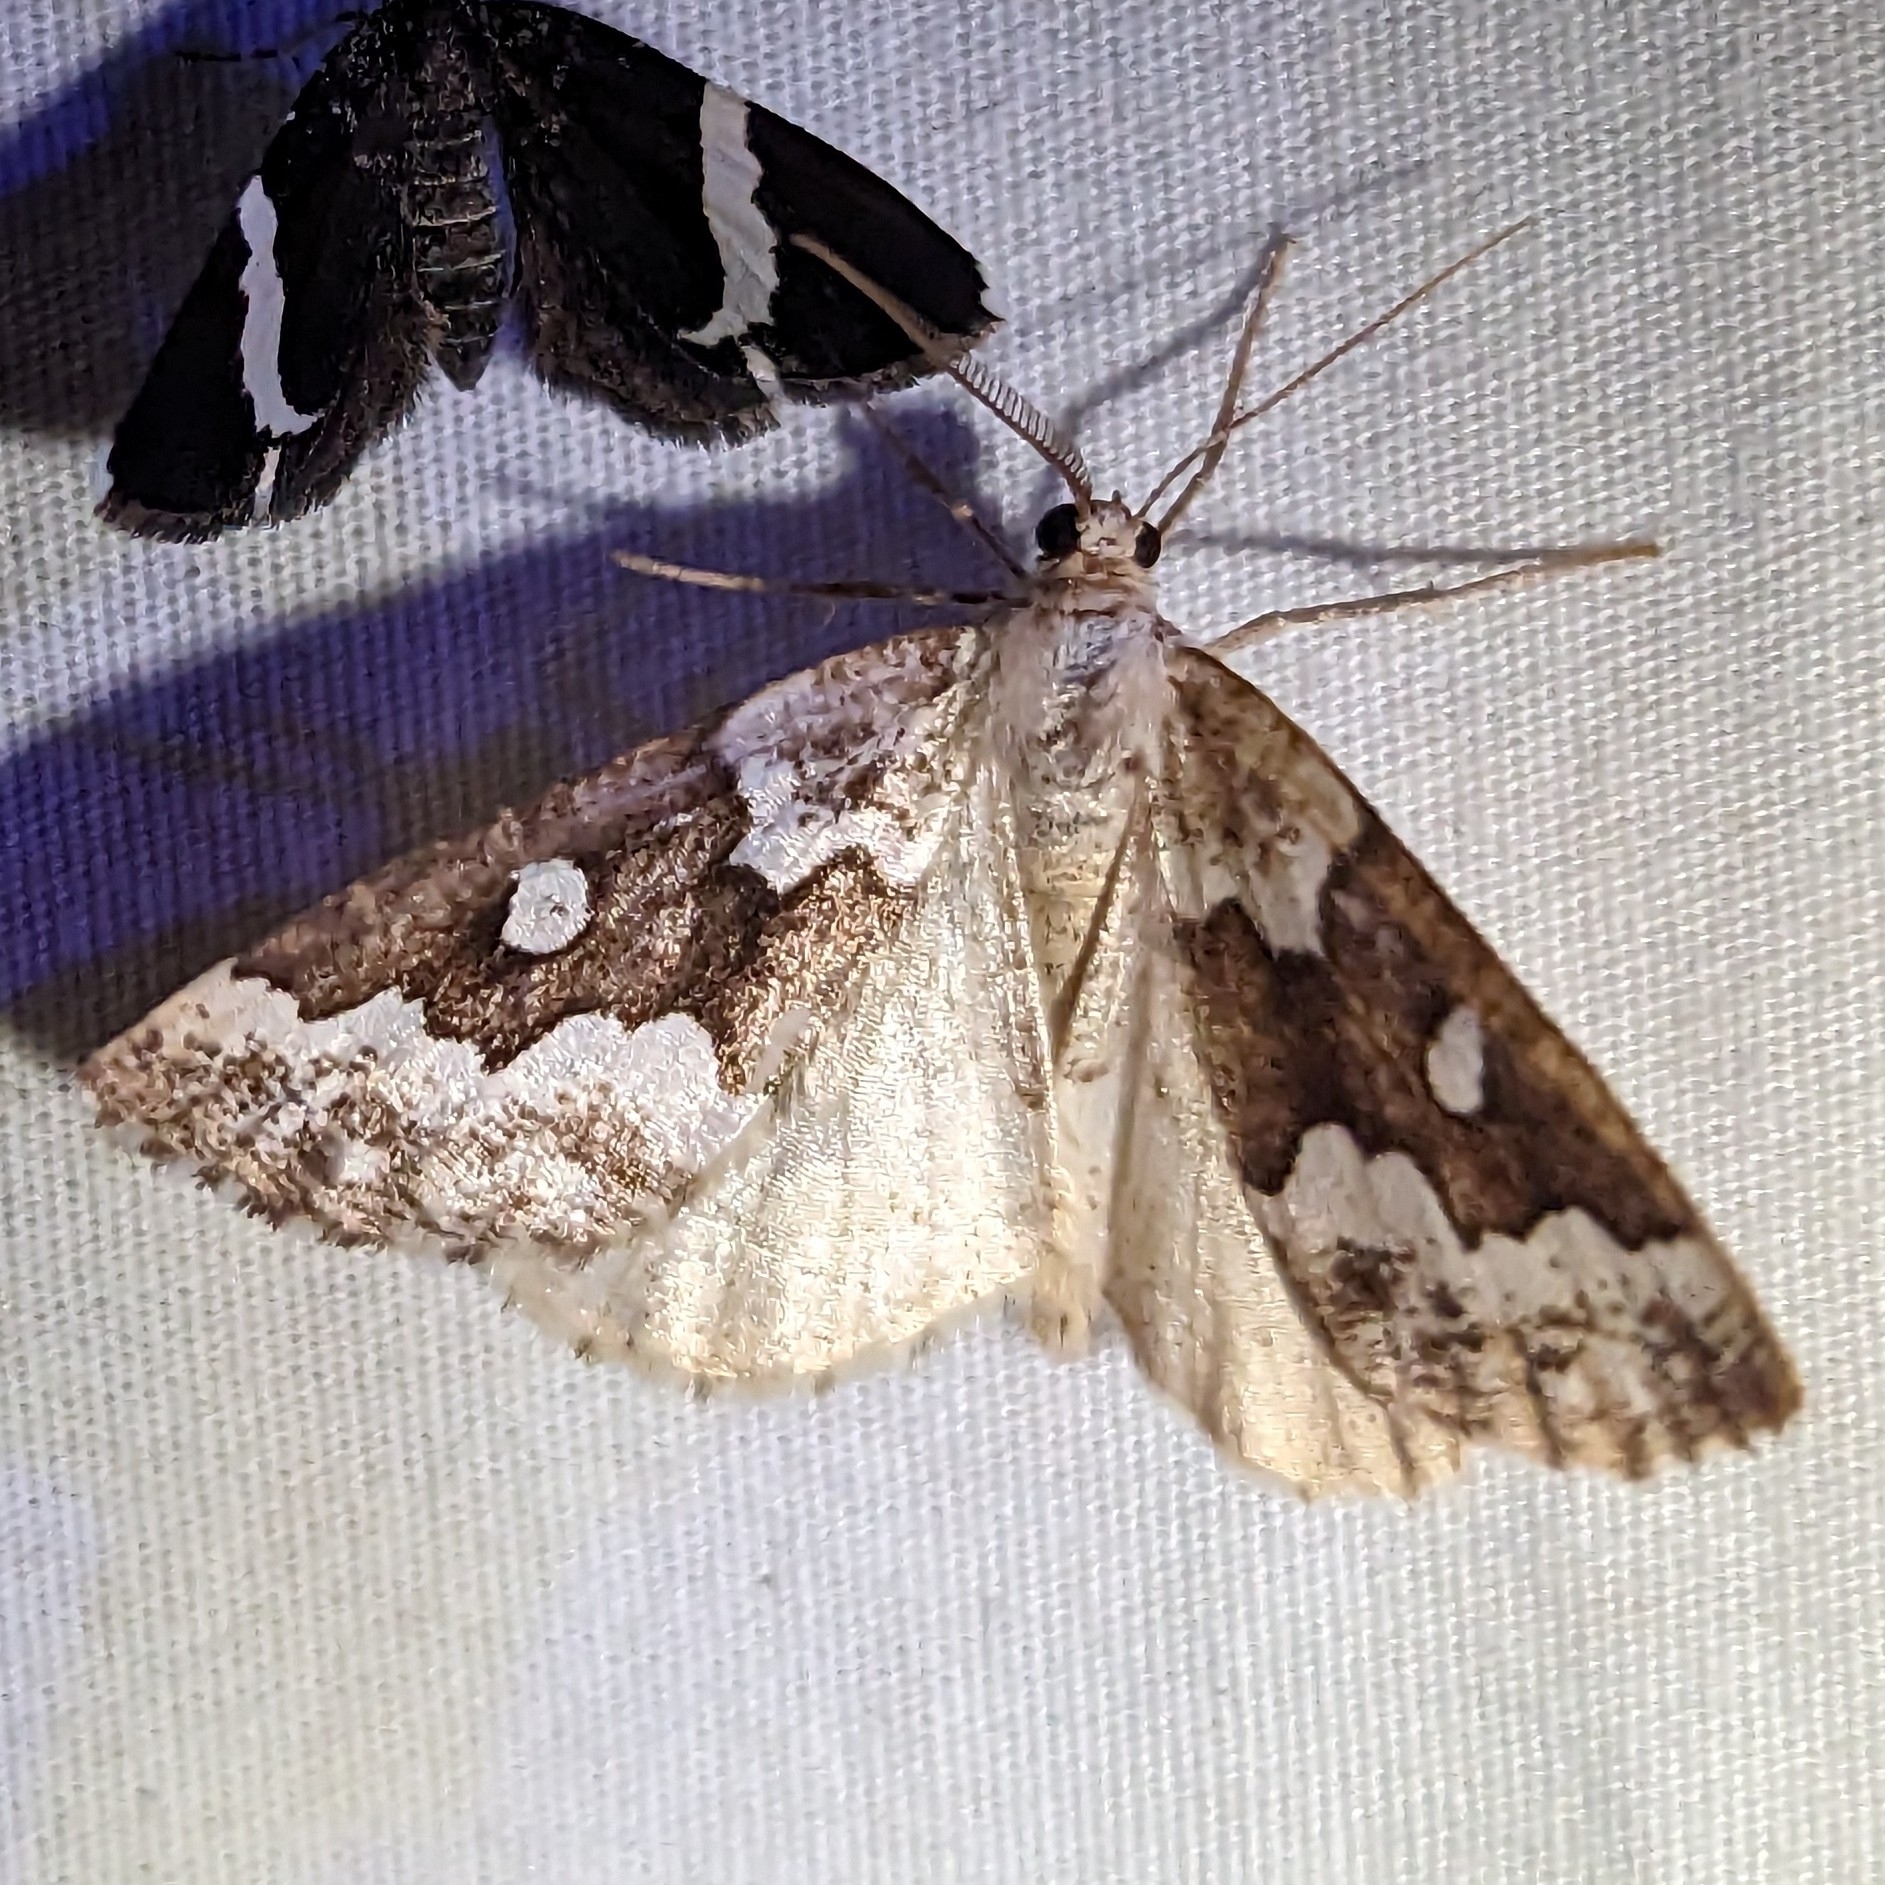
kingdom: Animalia
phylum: Arthropoda
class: Insecta
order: Lepidoptera
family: Geometridae
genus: Caripeta
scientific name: Caripeta divisata
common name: Gray spruce looper
